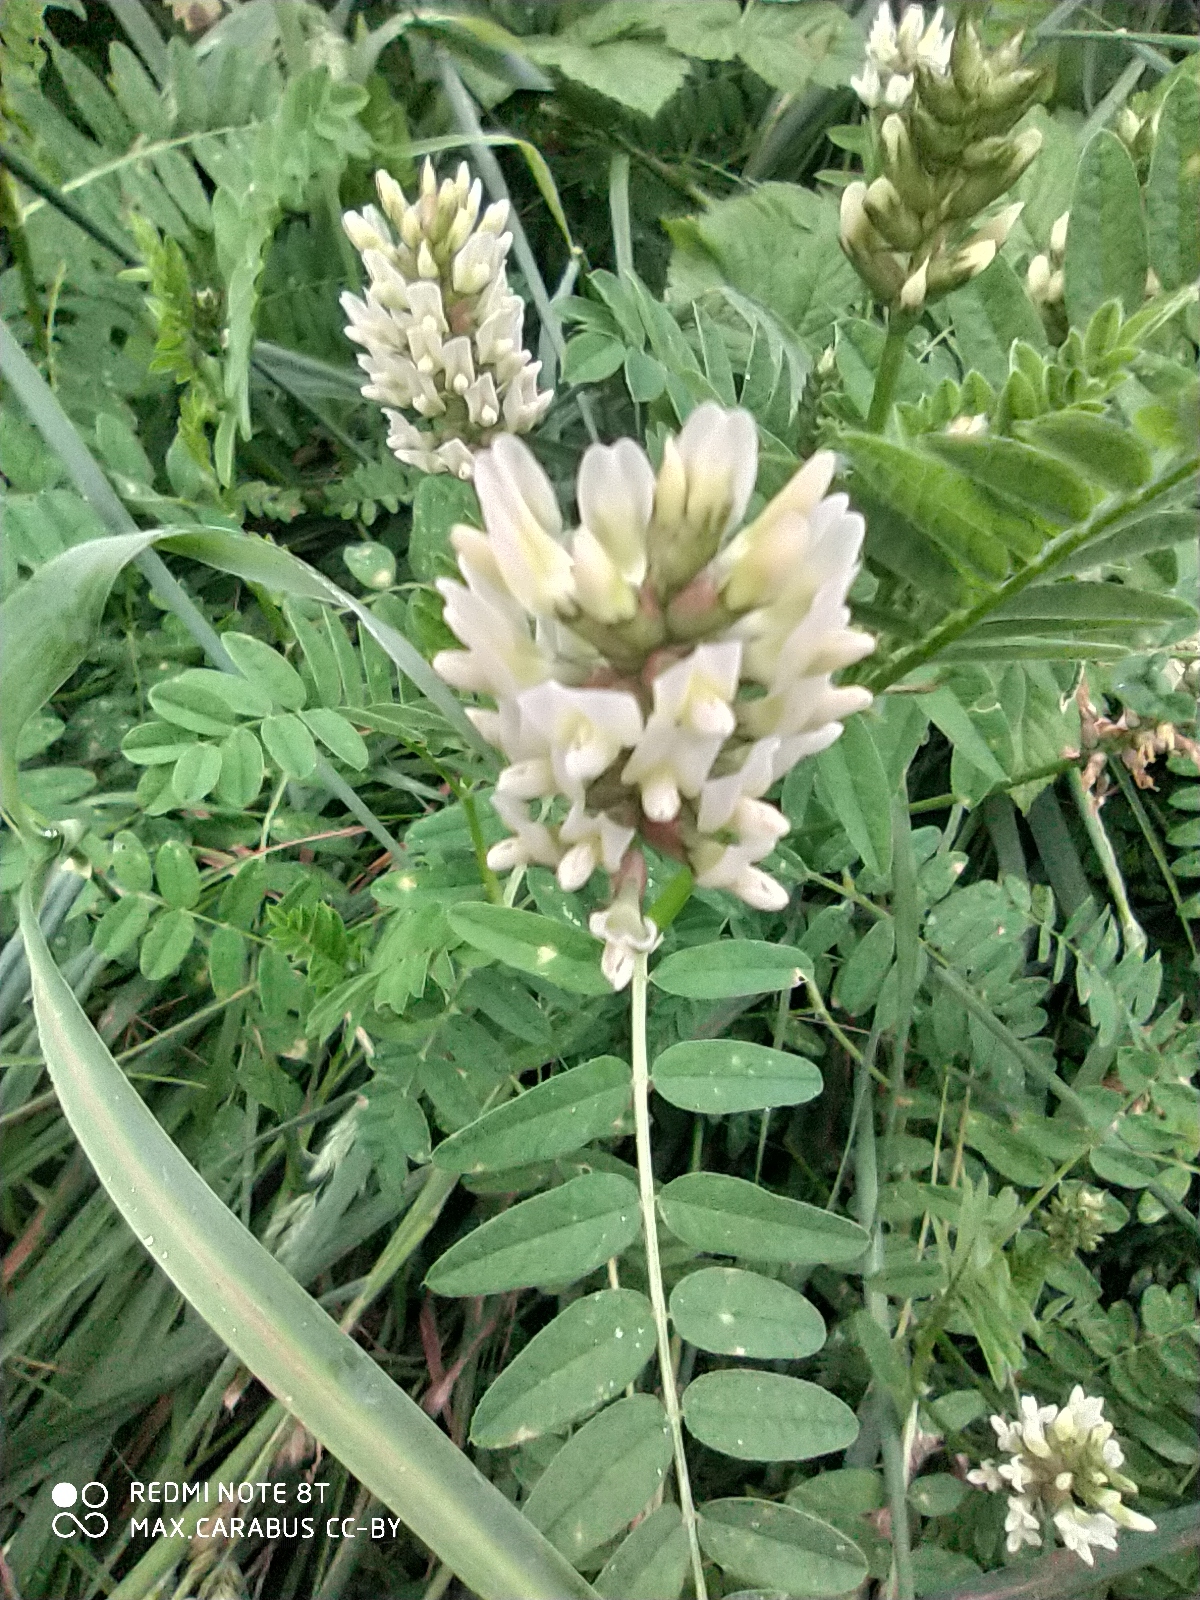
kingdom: Plantae
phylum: Tracheophyta
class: Magnoliopsida
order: Fabales
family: Fabaceae
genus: Astragalus
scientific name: Astragalus cicer
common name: Chick-pea milk-vetch
